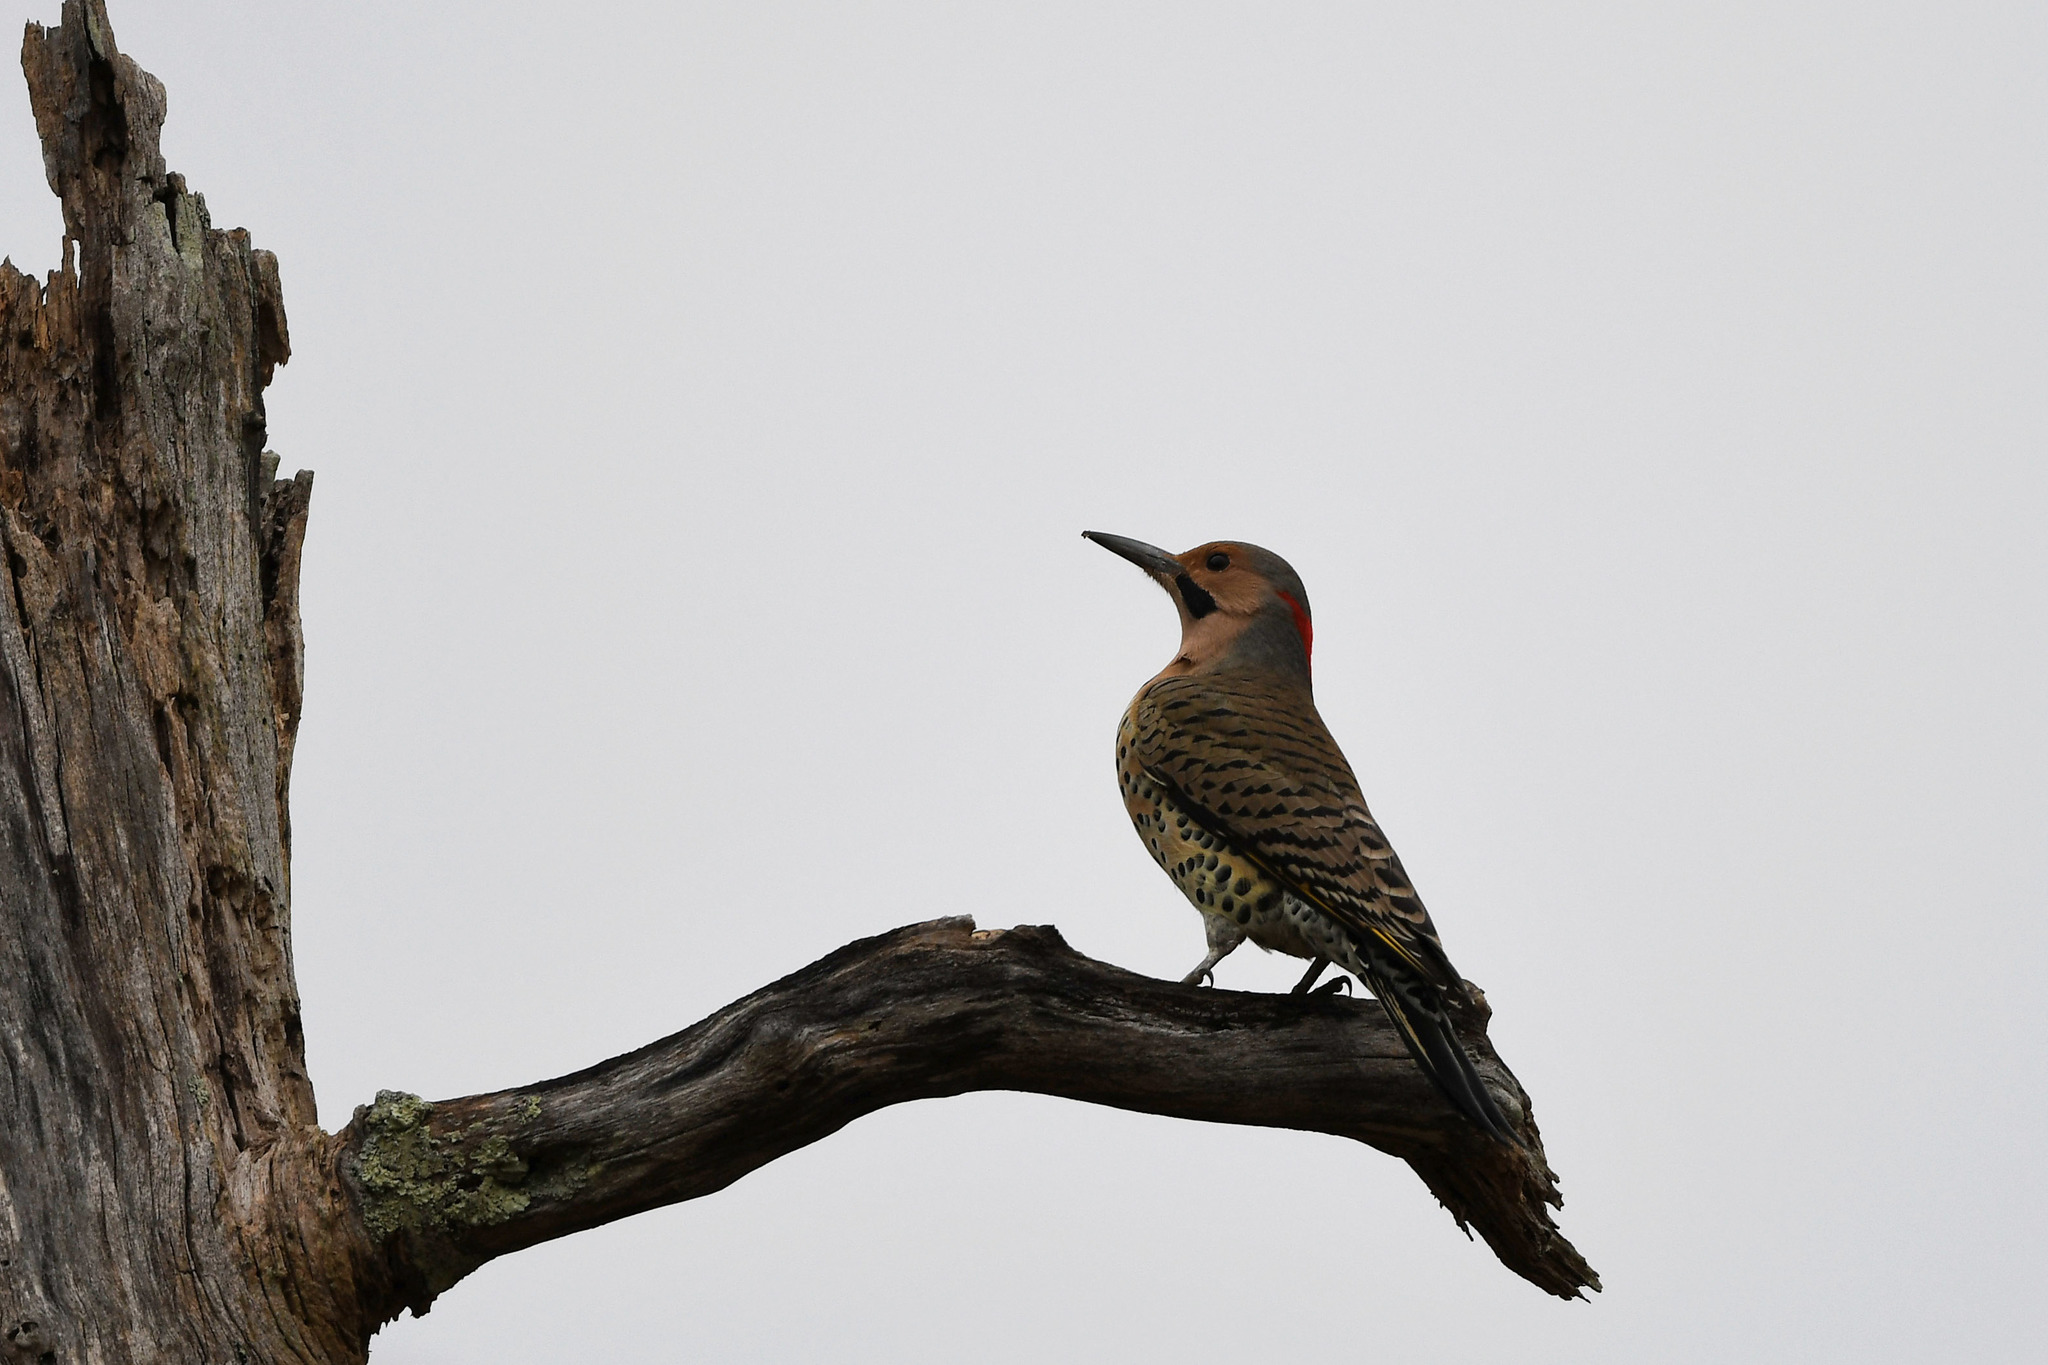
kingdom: Animalia
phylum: Chordata
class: Aves
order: Piciformes
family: Picidae
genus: Colaptes
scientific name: Colaptes auratus
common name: Northern flicker
